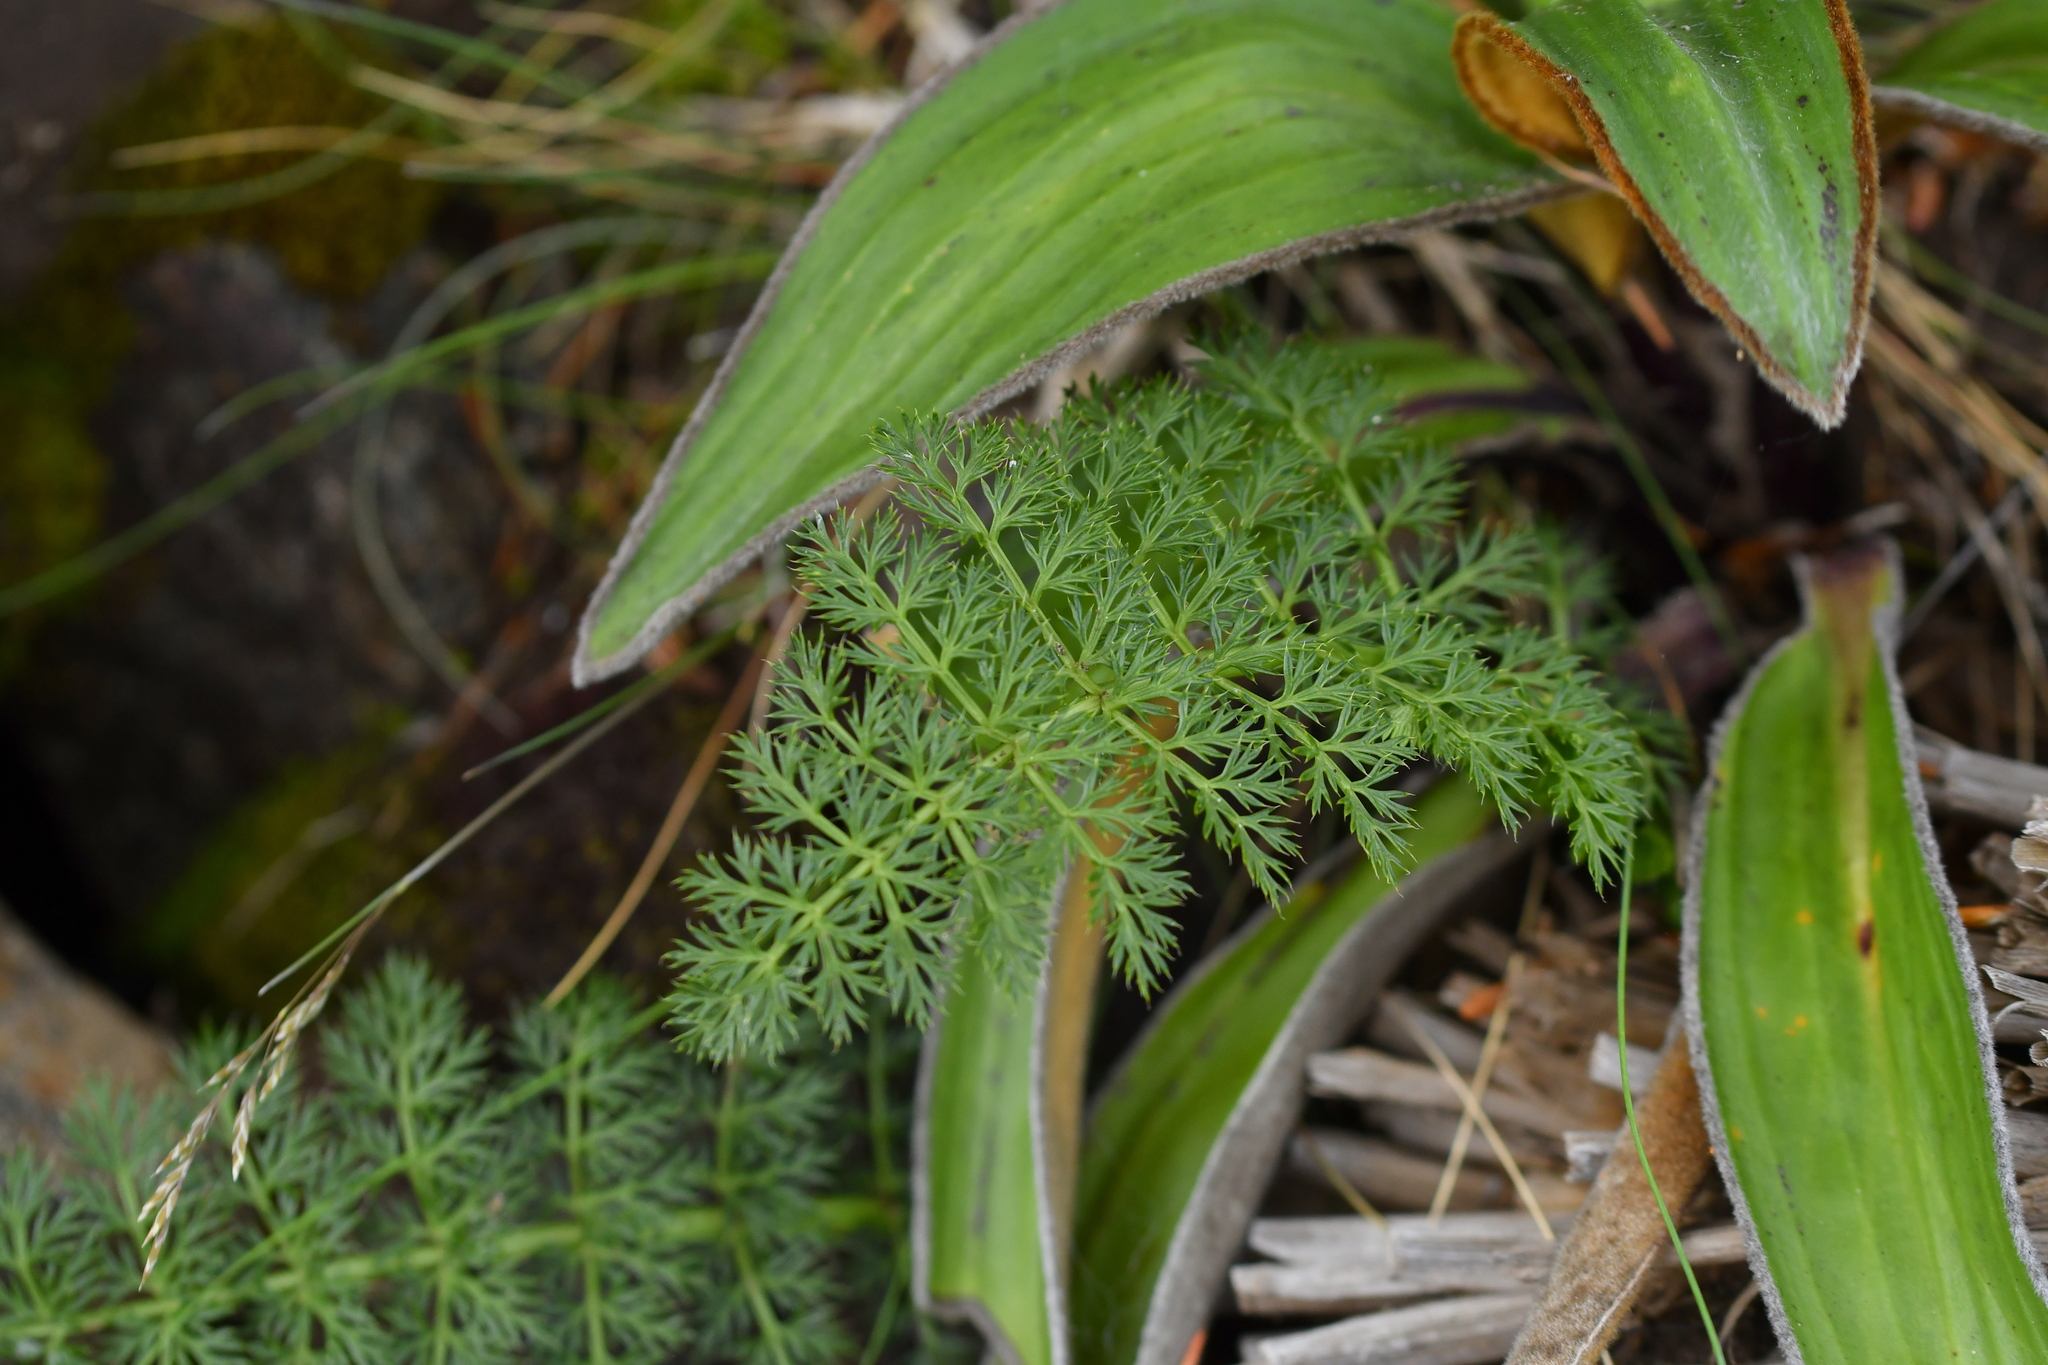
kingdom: Plantae
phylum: Tracheophyta
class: Magnoliopsida
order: Apiales
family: Apiaceae
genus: Anisotome
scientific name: Anisotome haastii
